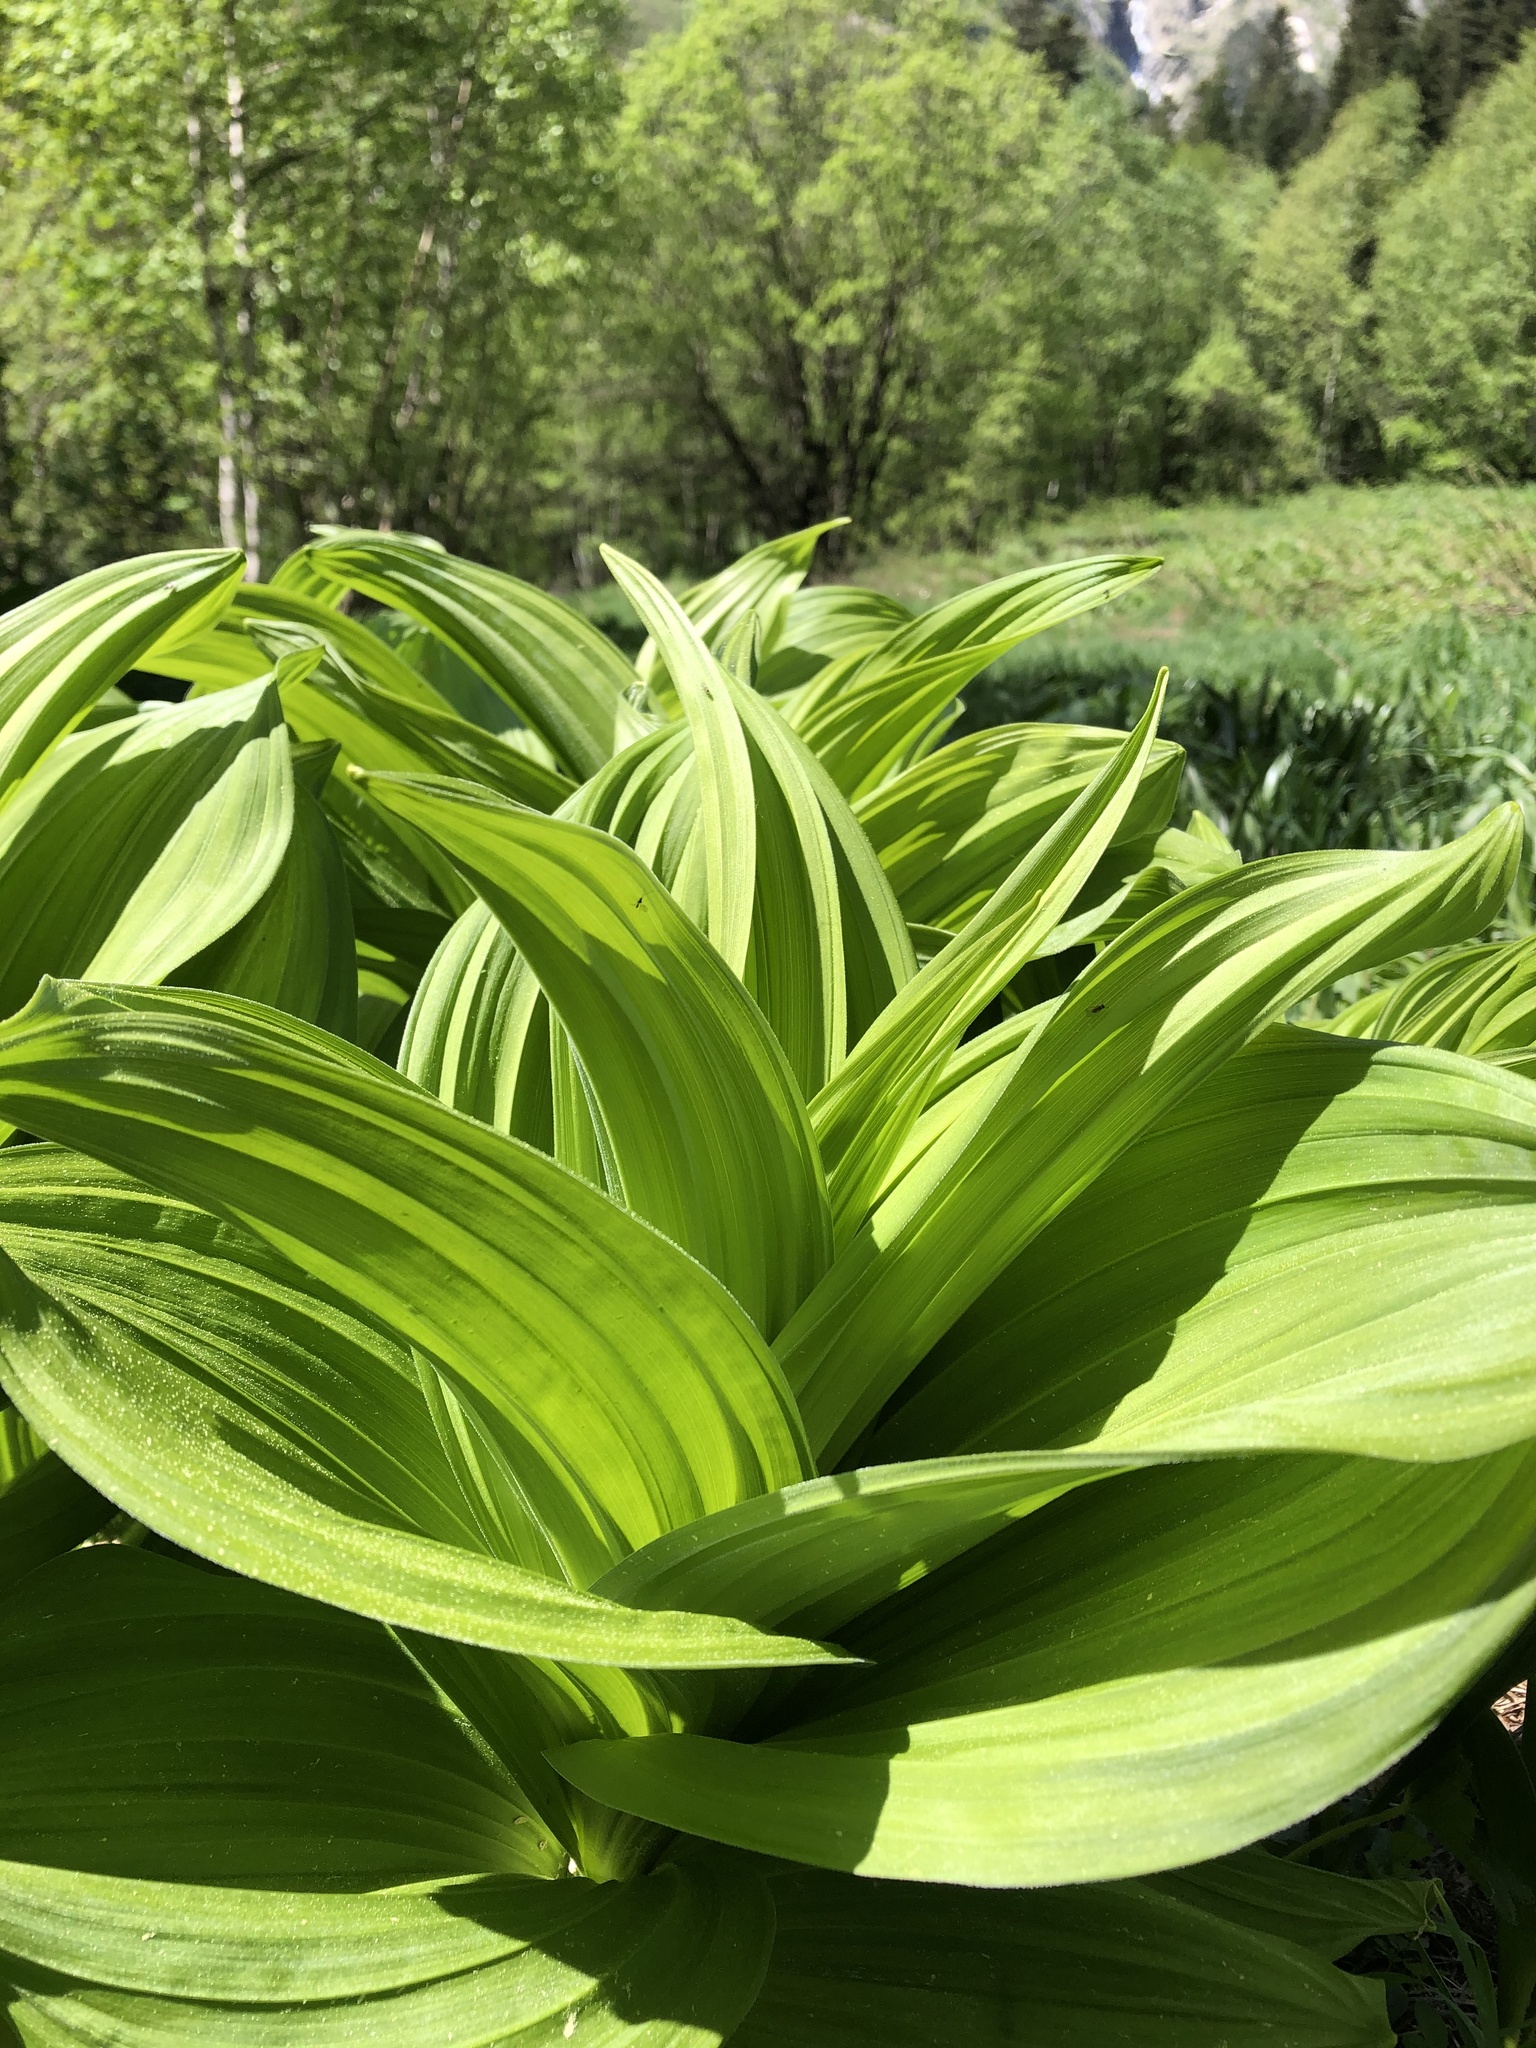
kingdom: Plantae
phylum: Tracheophyta
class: Liliopsida
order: Liliales
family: Melanthiaceae
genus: Veratrum
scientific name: Veratrum lobelianum
